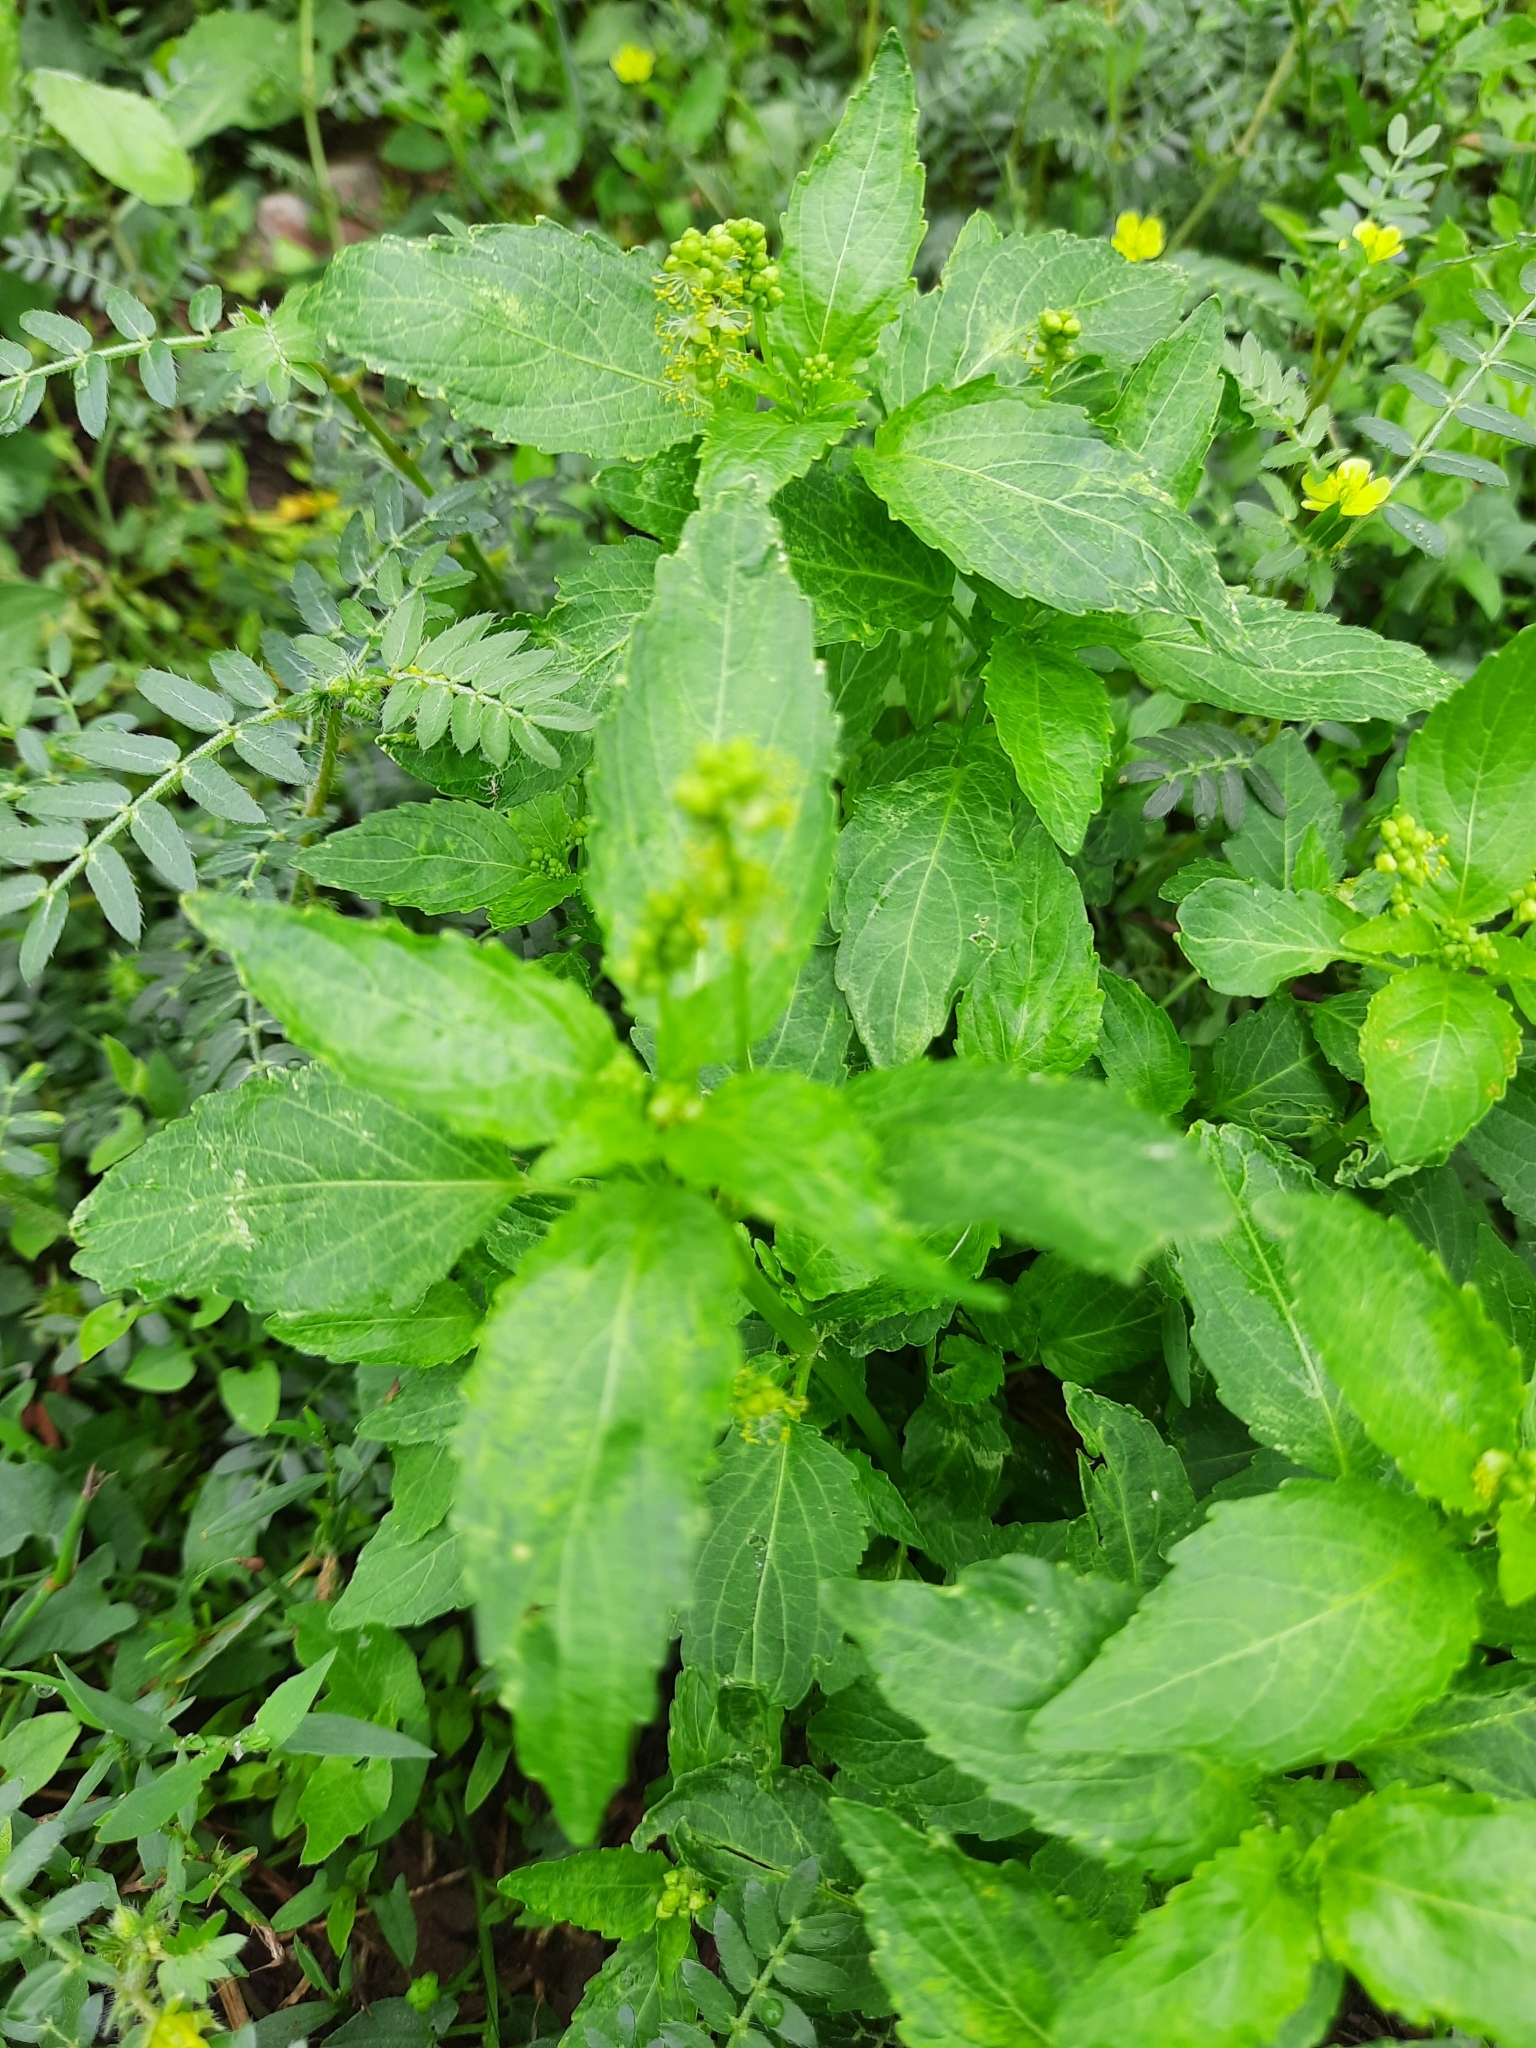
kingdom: Plantae
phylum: Tracheophyta
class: Magnoliopsida
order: Malpighiales
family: Euphorbiaceae
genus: Mercurialis
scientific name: Mercurialis annua
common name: Annual mercury
